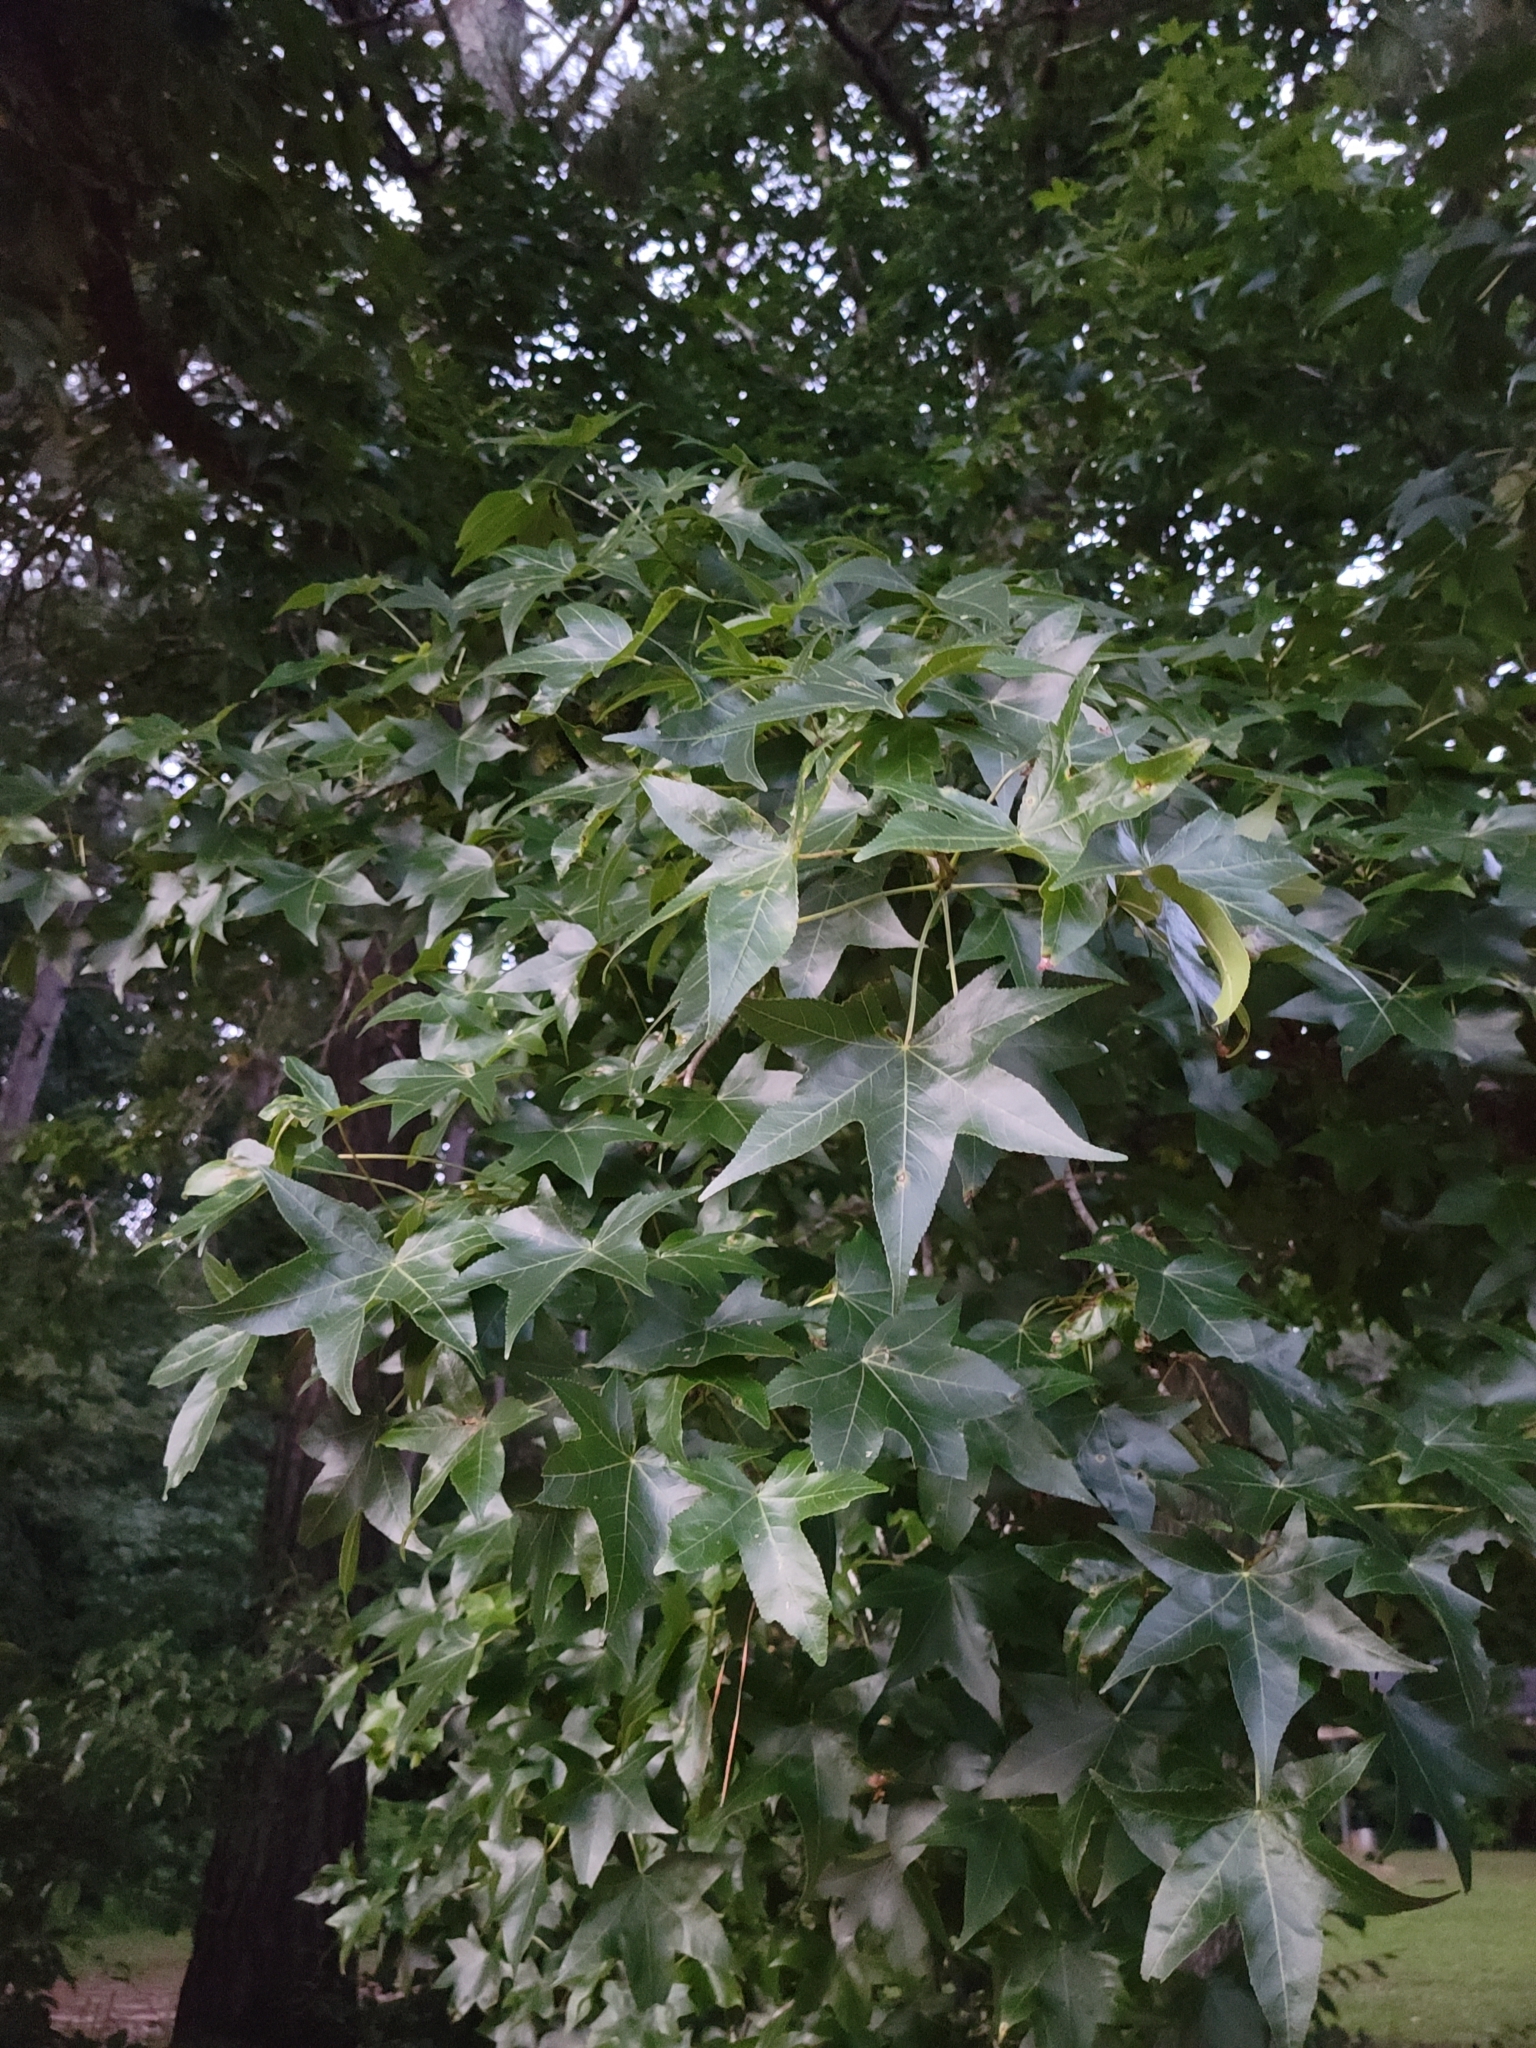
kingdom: Plantae
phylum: Tracheophyta
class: Magnoliopsida
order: Saxifragales
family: Altingiaceae
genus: Liquidambar
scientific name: Liquidambar styraciflua
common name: Sweet gum
